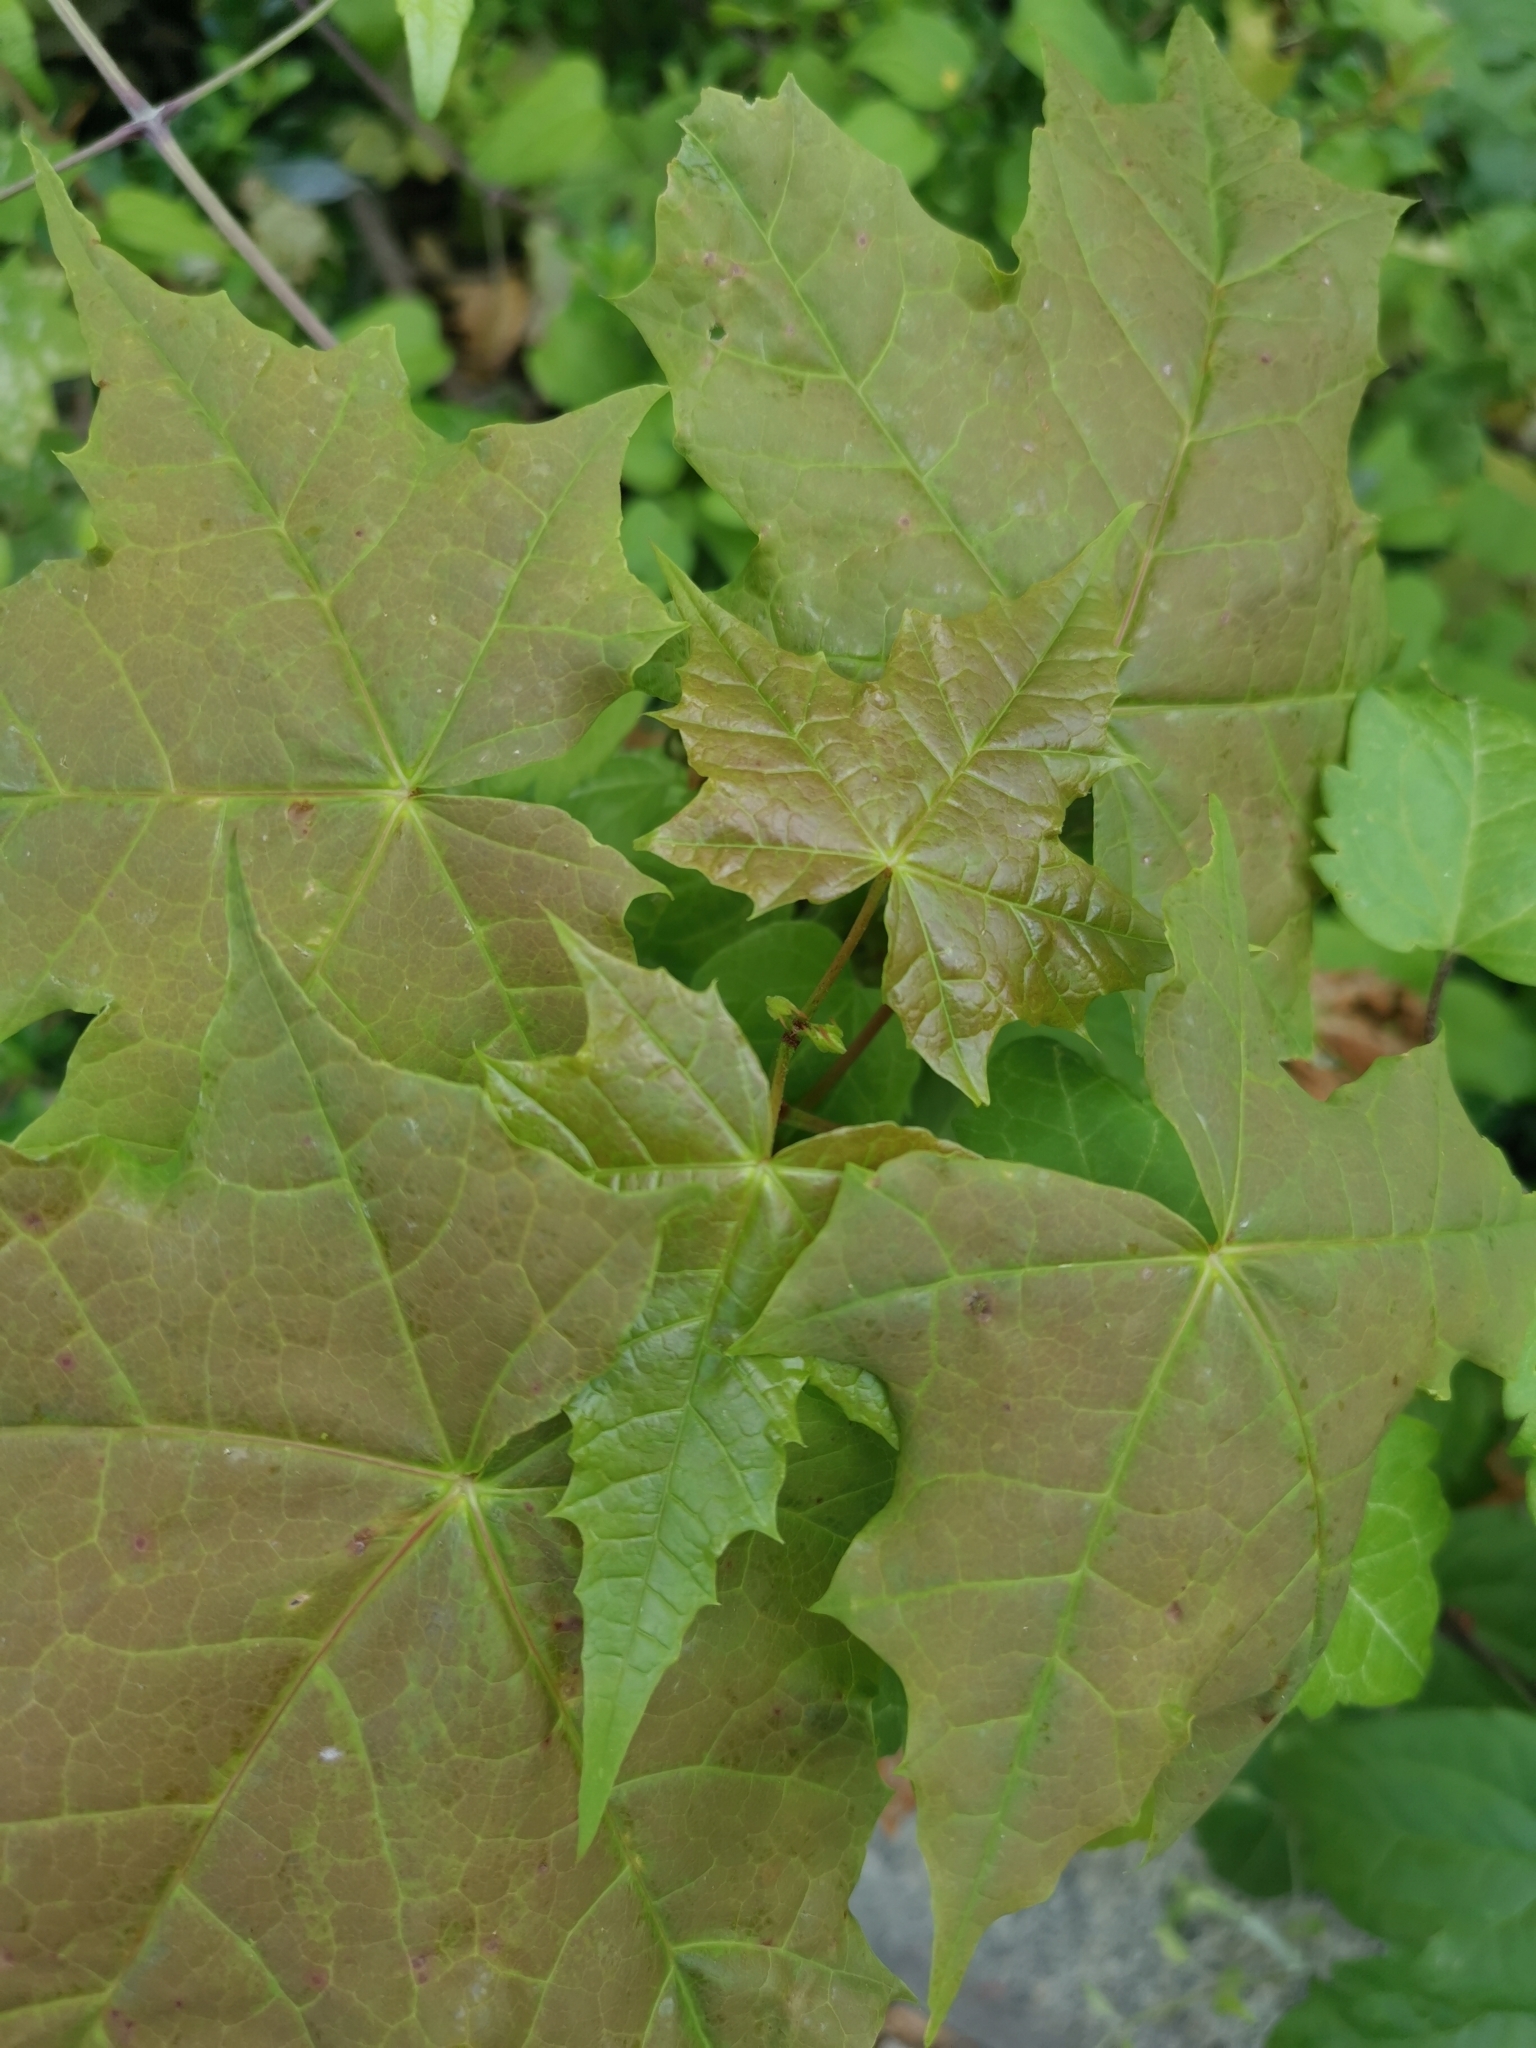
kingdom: Plantae
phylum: Tracheophyta
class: Magnoliopsida
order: Sapindales
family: Sapindaceae
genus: Acer
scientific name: Acer platanoides
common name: Norway maple
